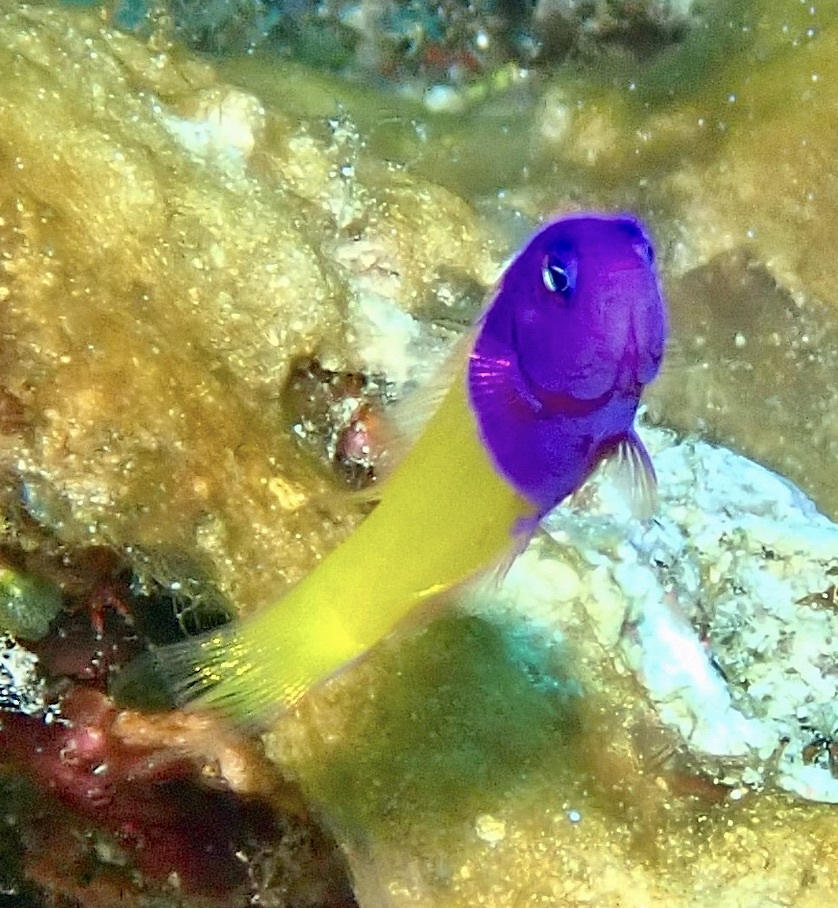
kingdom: Animalia
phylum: Chordata
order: Perciformes
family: Pseudochromidae
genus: Pictichromis
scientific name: Pictichromis paccagnellae
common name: Royal dottyback
